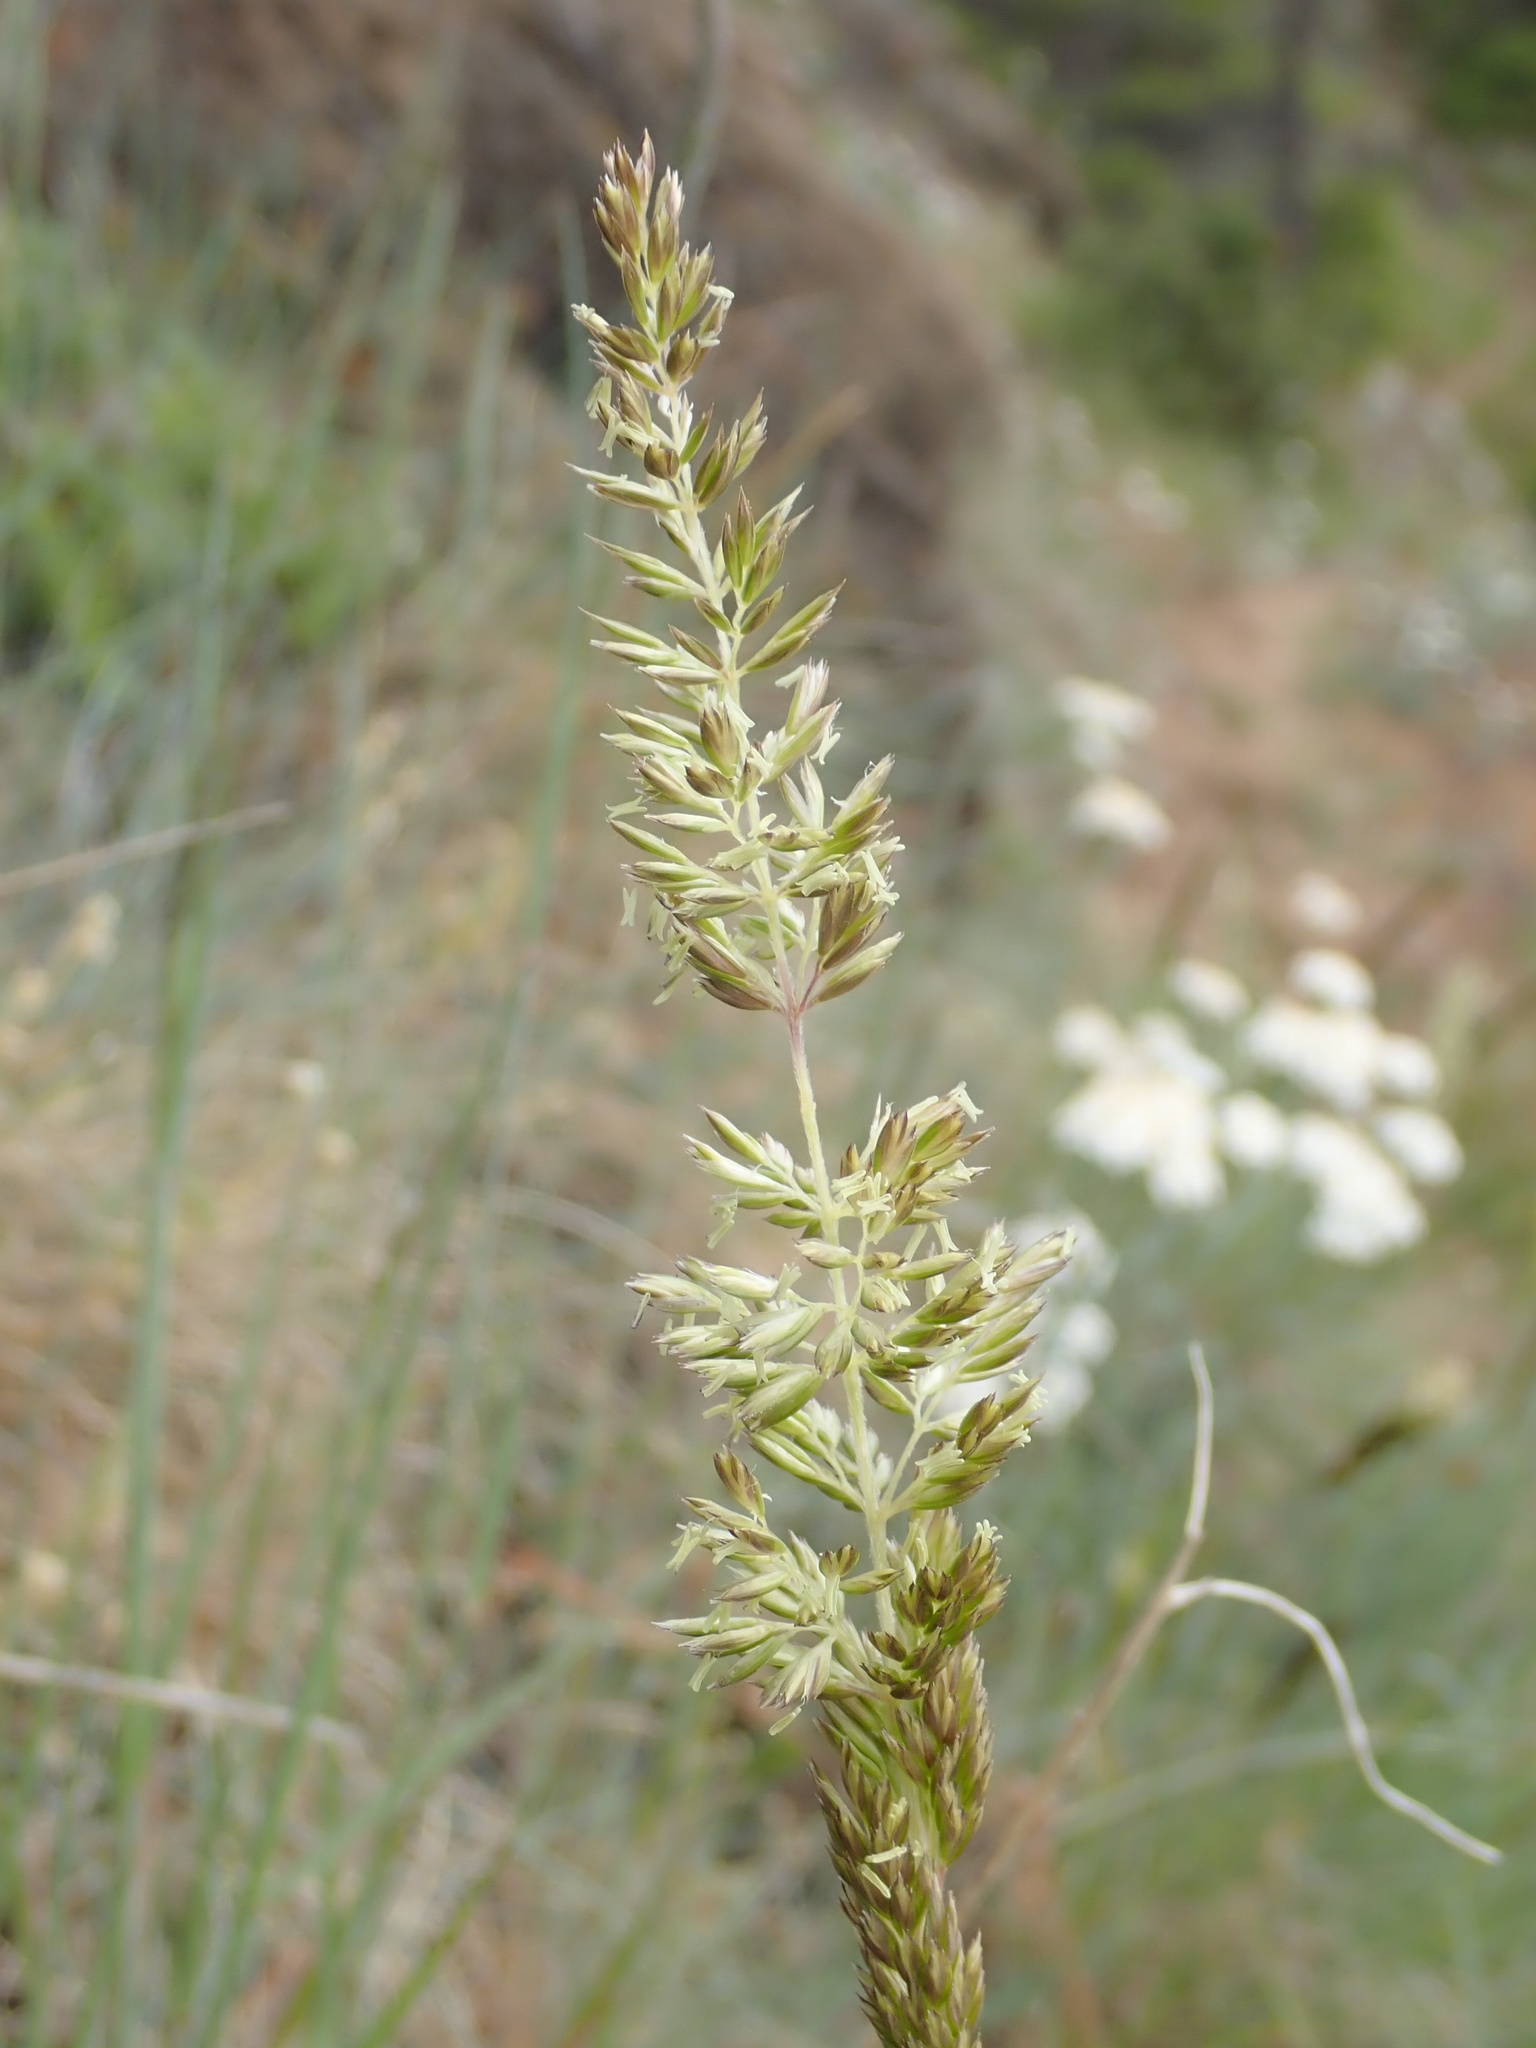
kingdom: Plantae
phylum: Tracheophyta
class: Liliopsida
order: Poales
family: Poaceae
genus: Koeleria
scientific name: Koeleria macrantha
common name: Crested hair-grass
